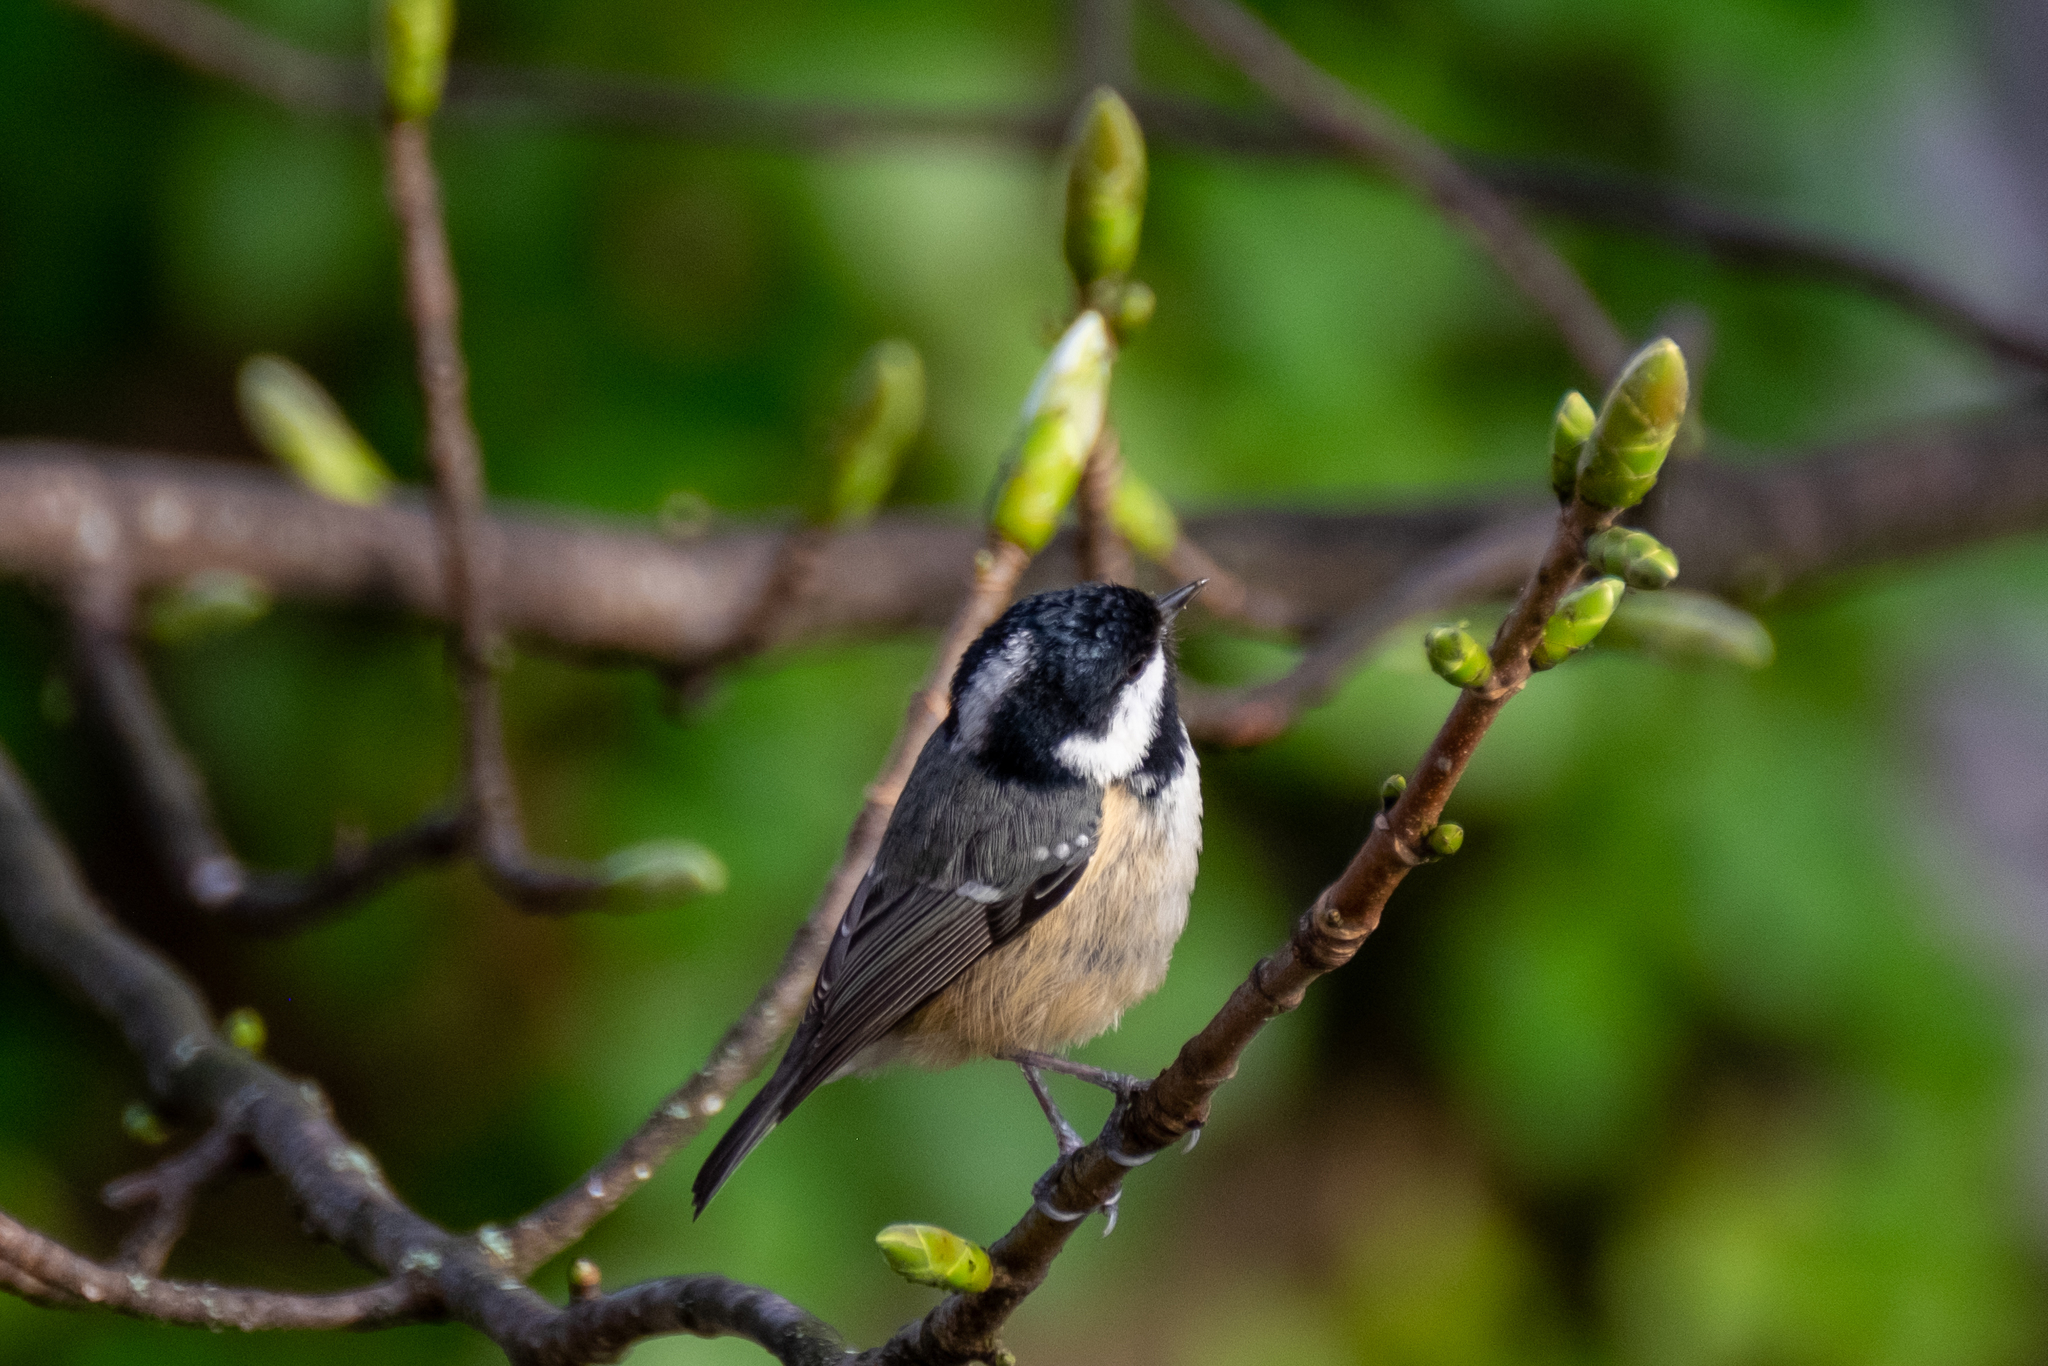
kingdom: Animalia
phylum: Chordata
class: Aves
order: Passeriformes
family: Paridae
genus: Periparus
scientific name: Periparus ater
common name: Coal tit
